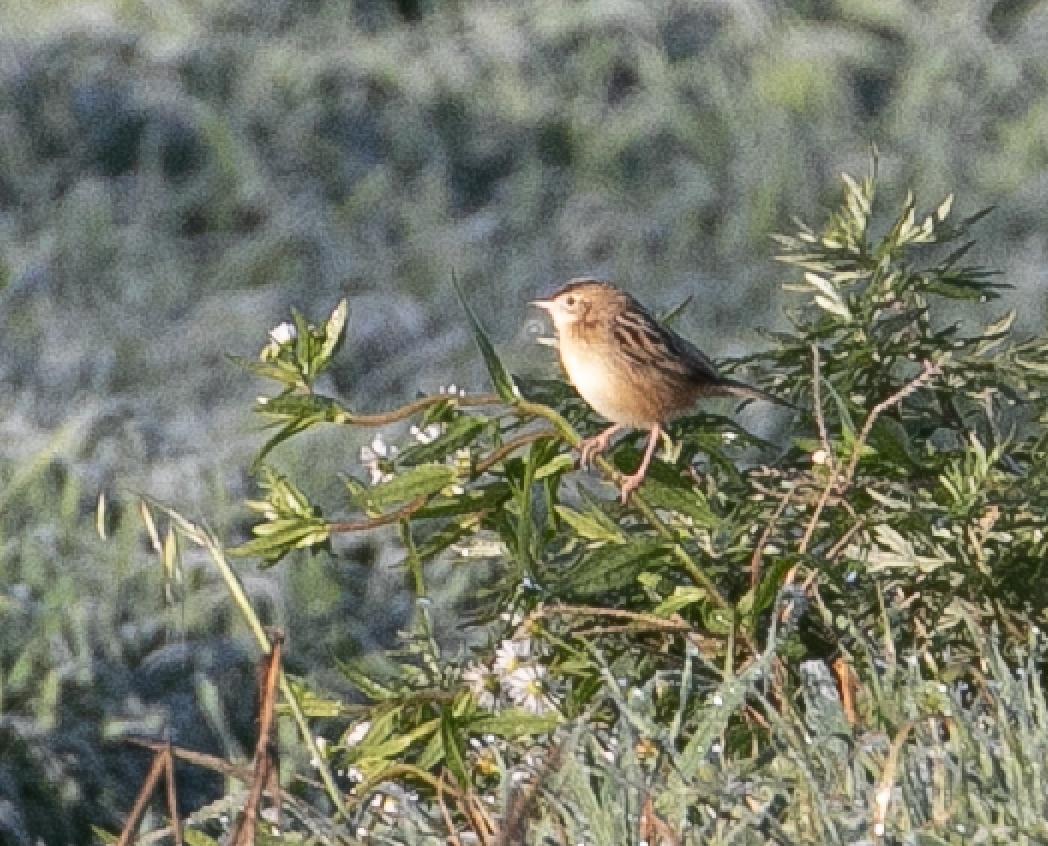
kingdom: Animalia
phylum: Chordata
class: Aves
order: Passeriformes
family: Cisticolidae
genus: Cisticola
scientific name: Cisticola juncidis
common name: Zitting cisticola
